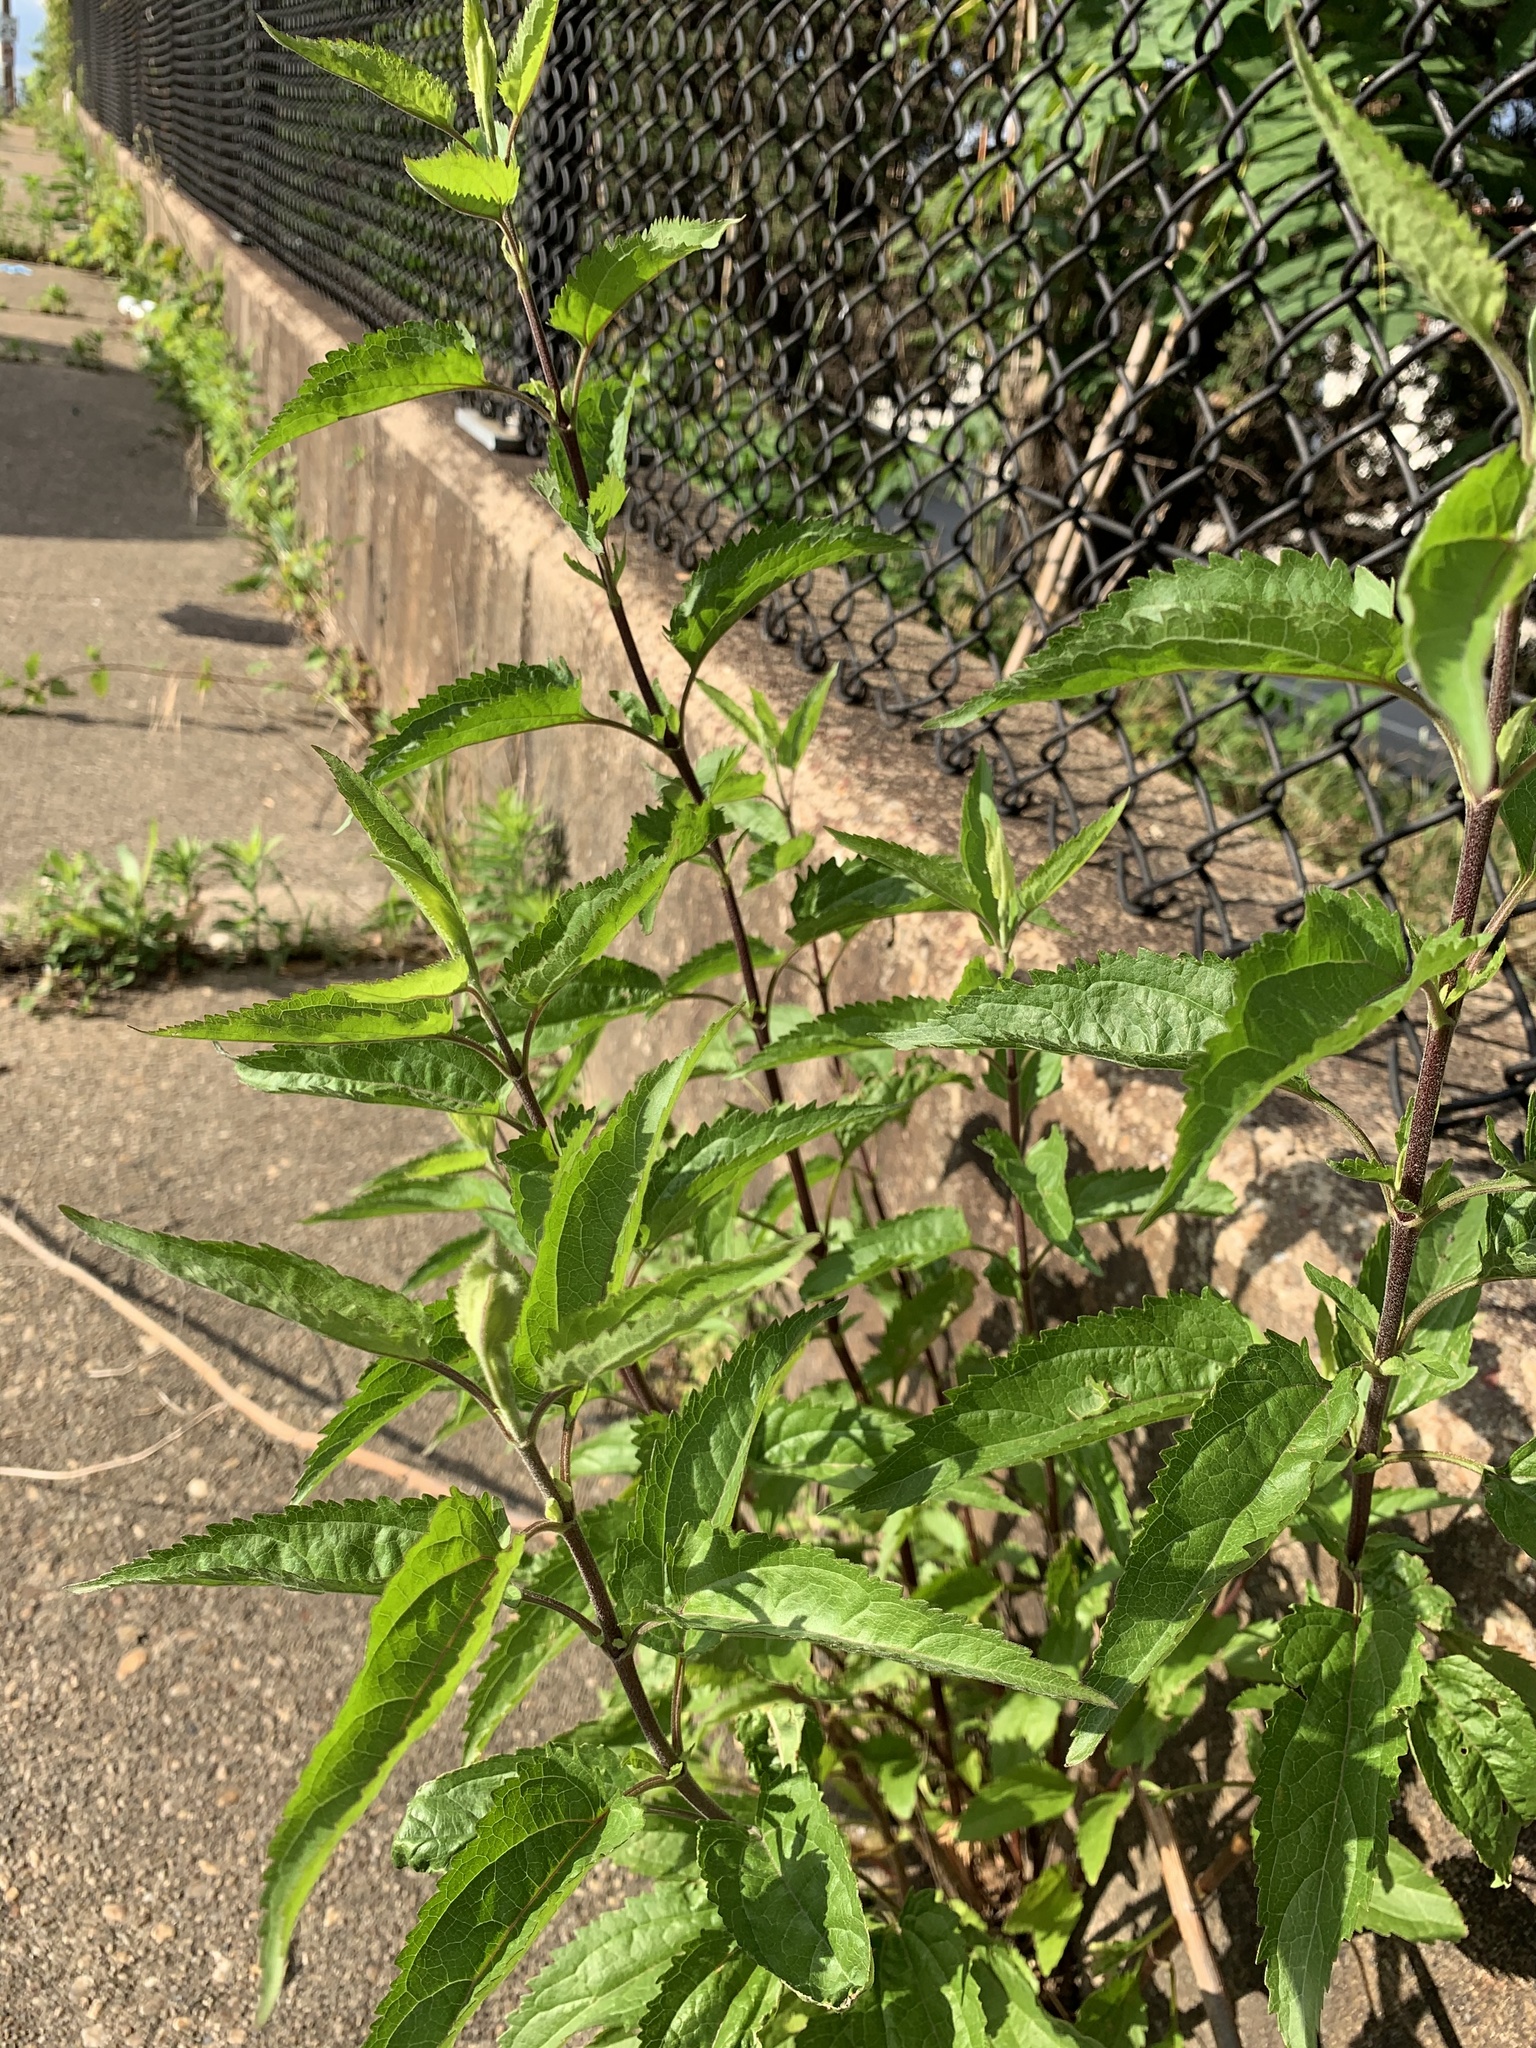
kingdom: Plantae
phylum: Tracheophyta
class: Magnoliopsida
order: Asterales
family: Asteraceae
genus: Eupatorium
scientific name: Eupatorium serotinum
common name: Late boneset
